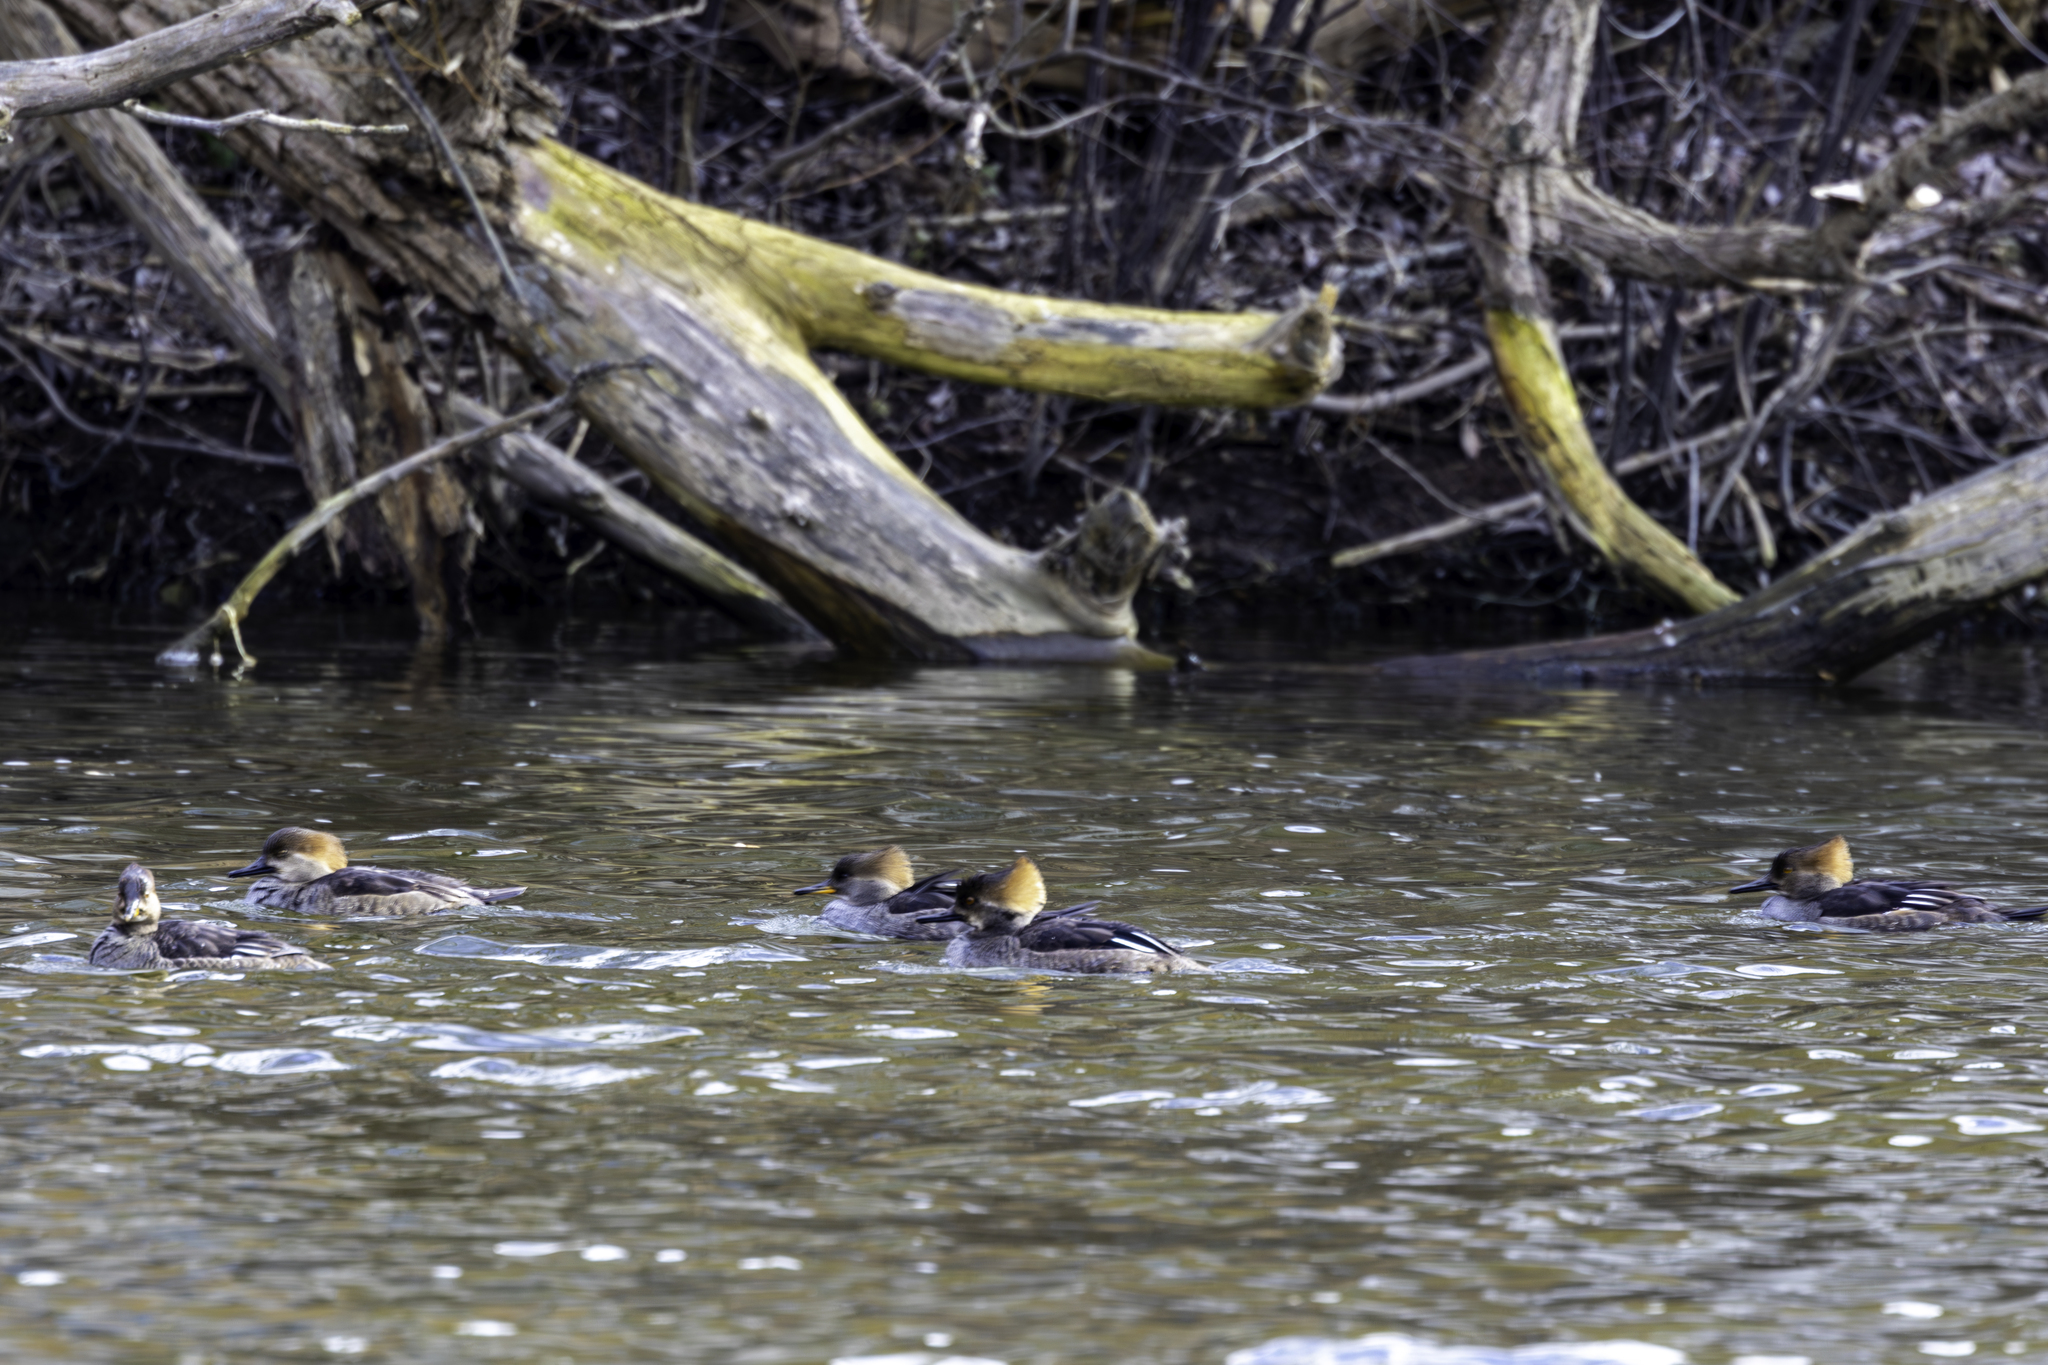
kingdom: Animalia
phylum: Chordata
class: Aves
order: Anseriformes
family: Anatidae
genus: Lophodytes
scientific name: Lophodytes cucullatus
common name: Hooded merganser
